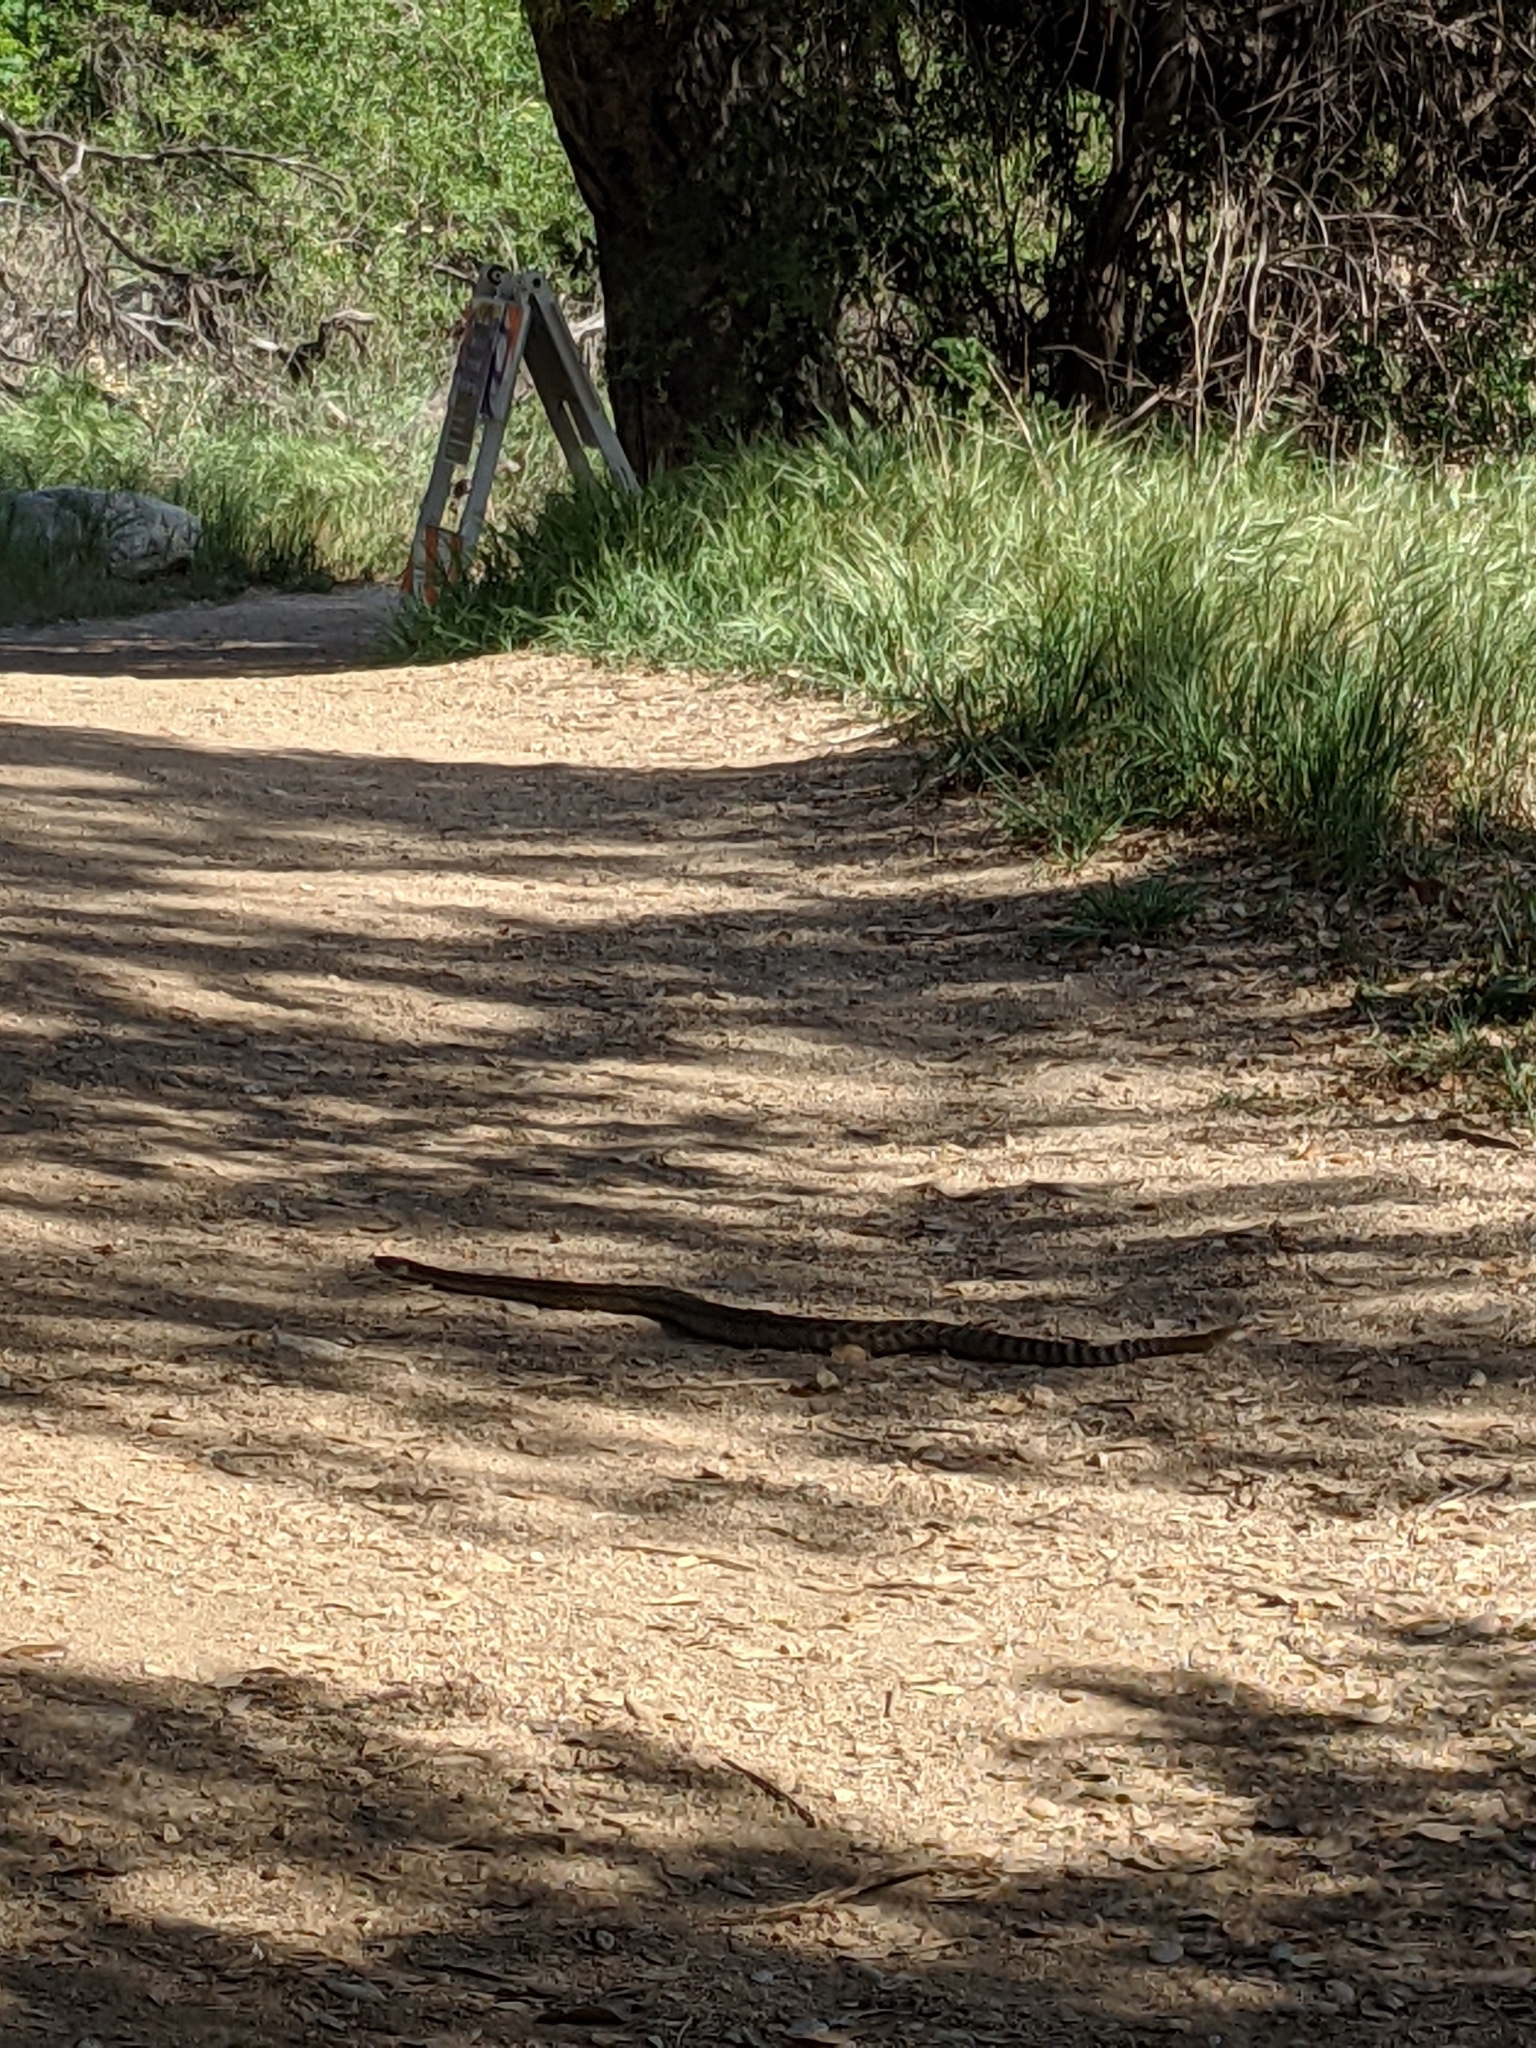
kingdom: Animalia
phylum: Chordata
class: Squamata
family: Viperidae
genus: Crotalus
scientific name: Crotalus oreganus
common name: Abyssus
